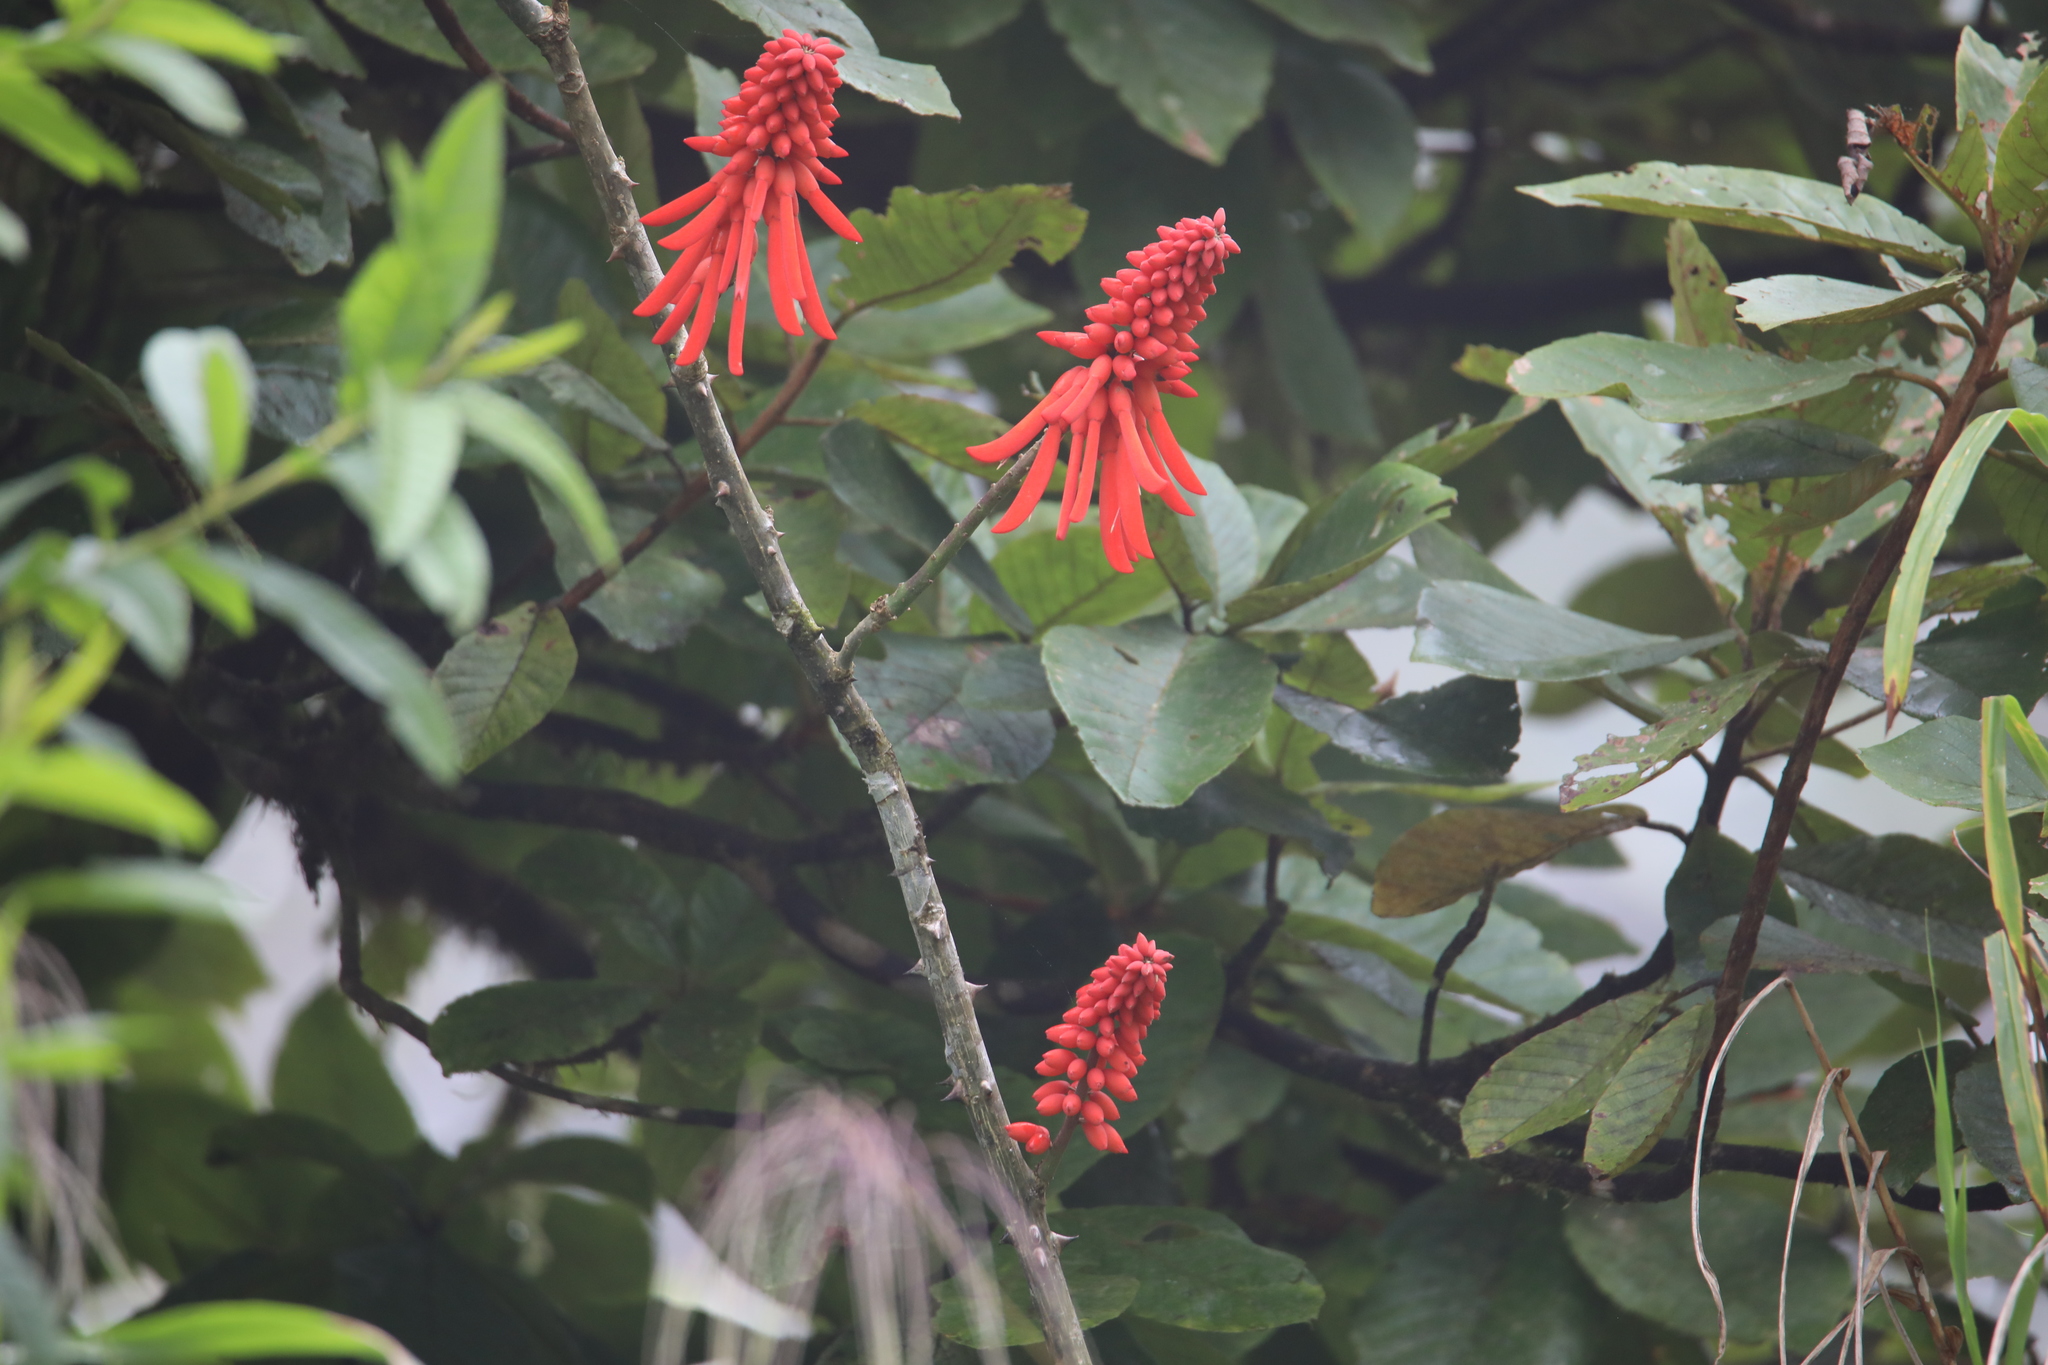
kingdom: Plantae
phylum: Tracheophyta
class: Magnoliopsida
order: Fabales
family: Fabaceae
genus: Erythrina
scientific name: Erythrina americana
